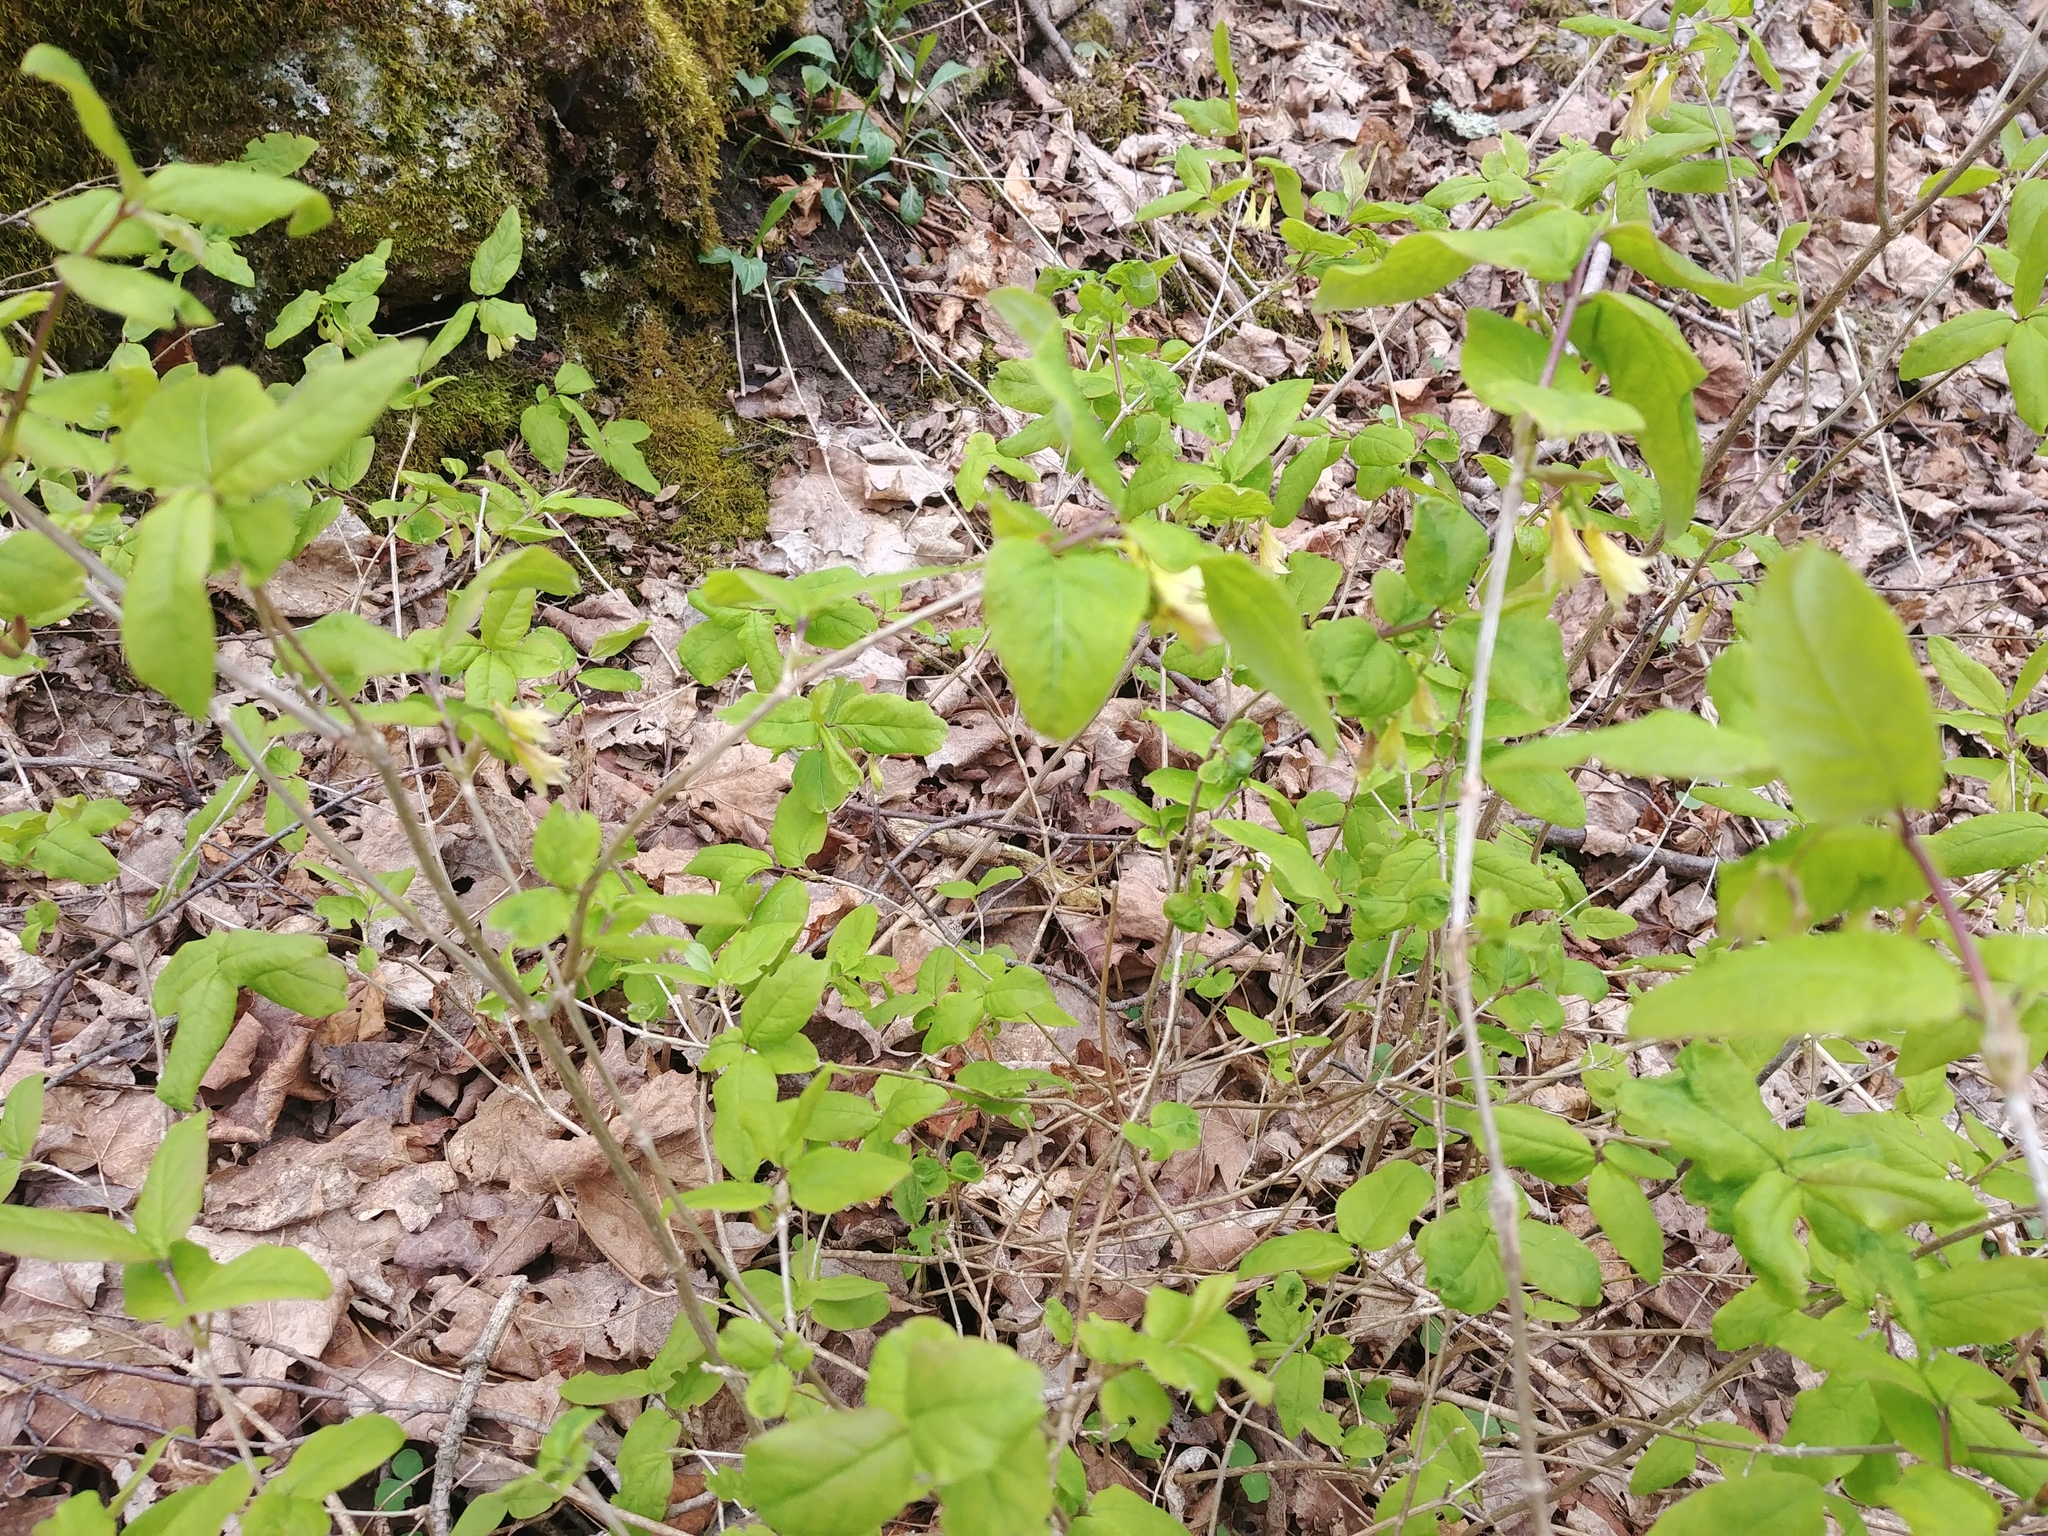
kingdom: Plantae
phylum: Tracheophyta
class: Magnoliopsida
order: Dipsacales
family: Caprifoliaceae
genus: Lonicera
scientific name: Lonicera canadensis
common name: American fly-honeysuckle
